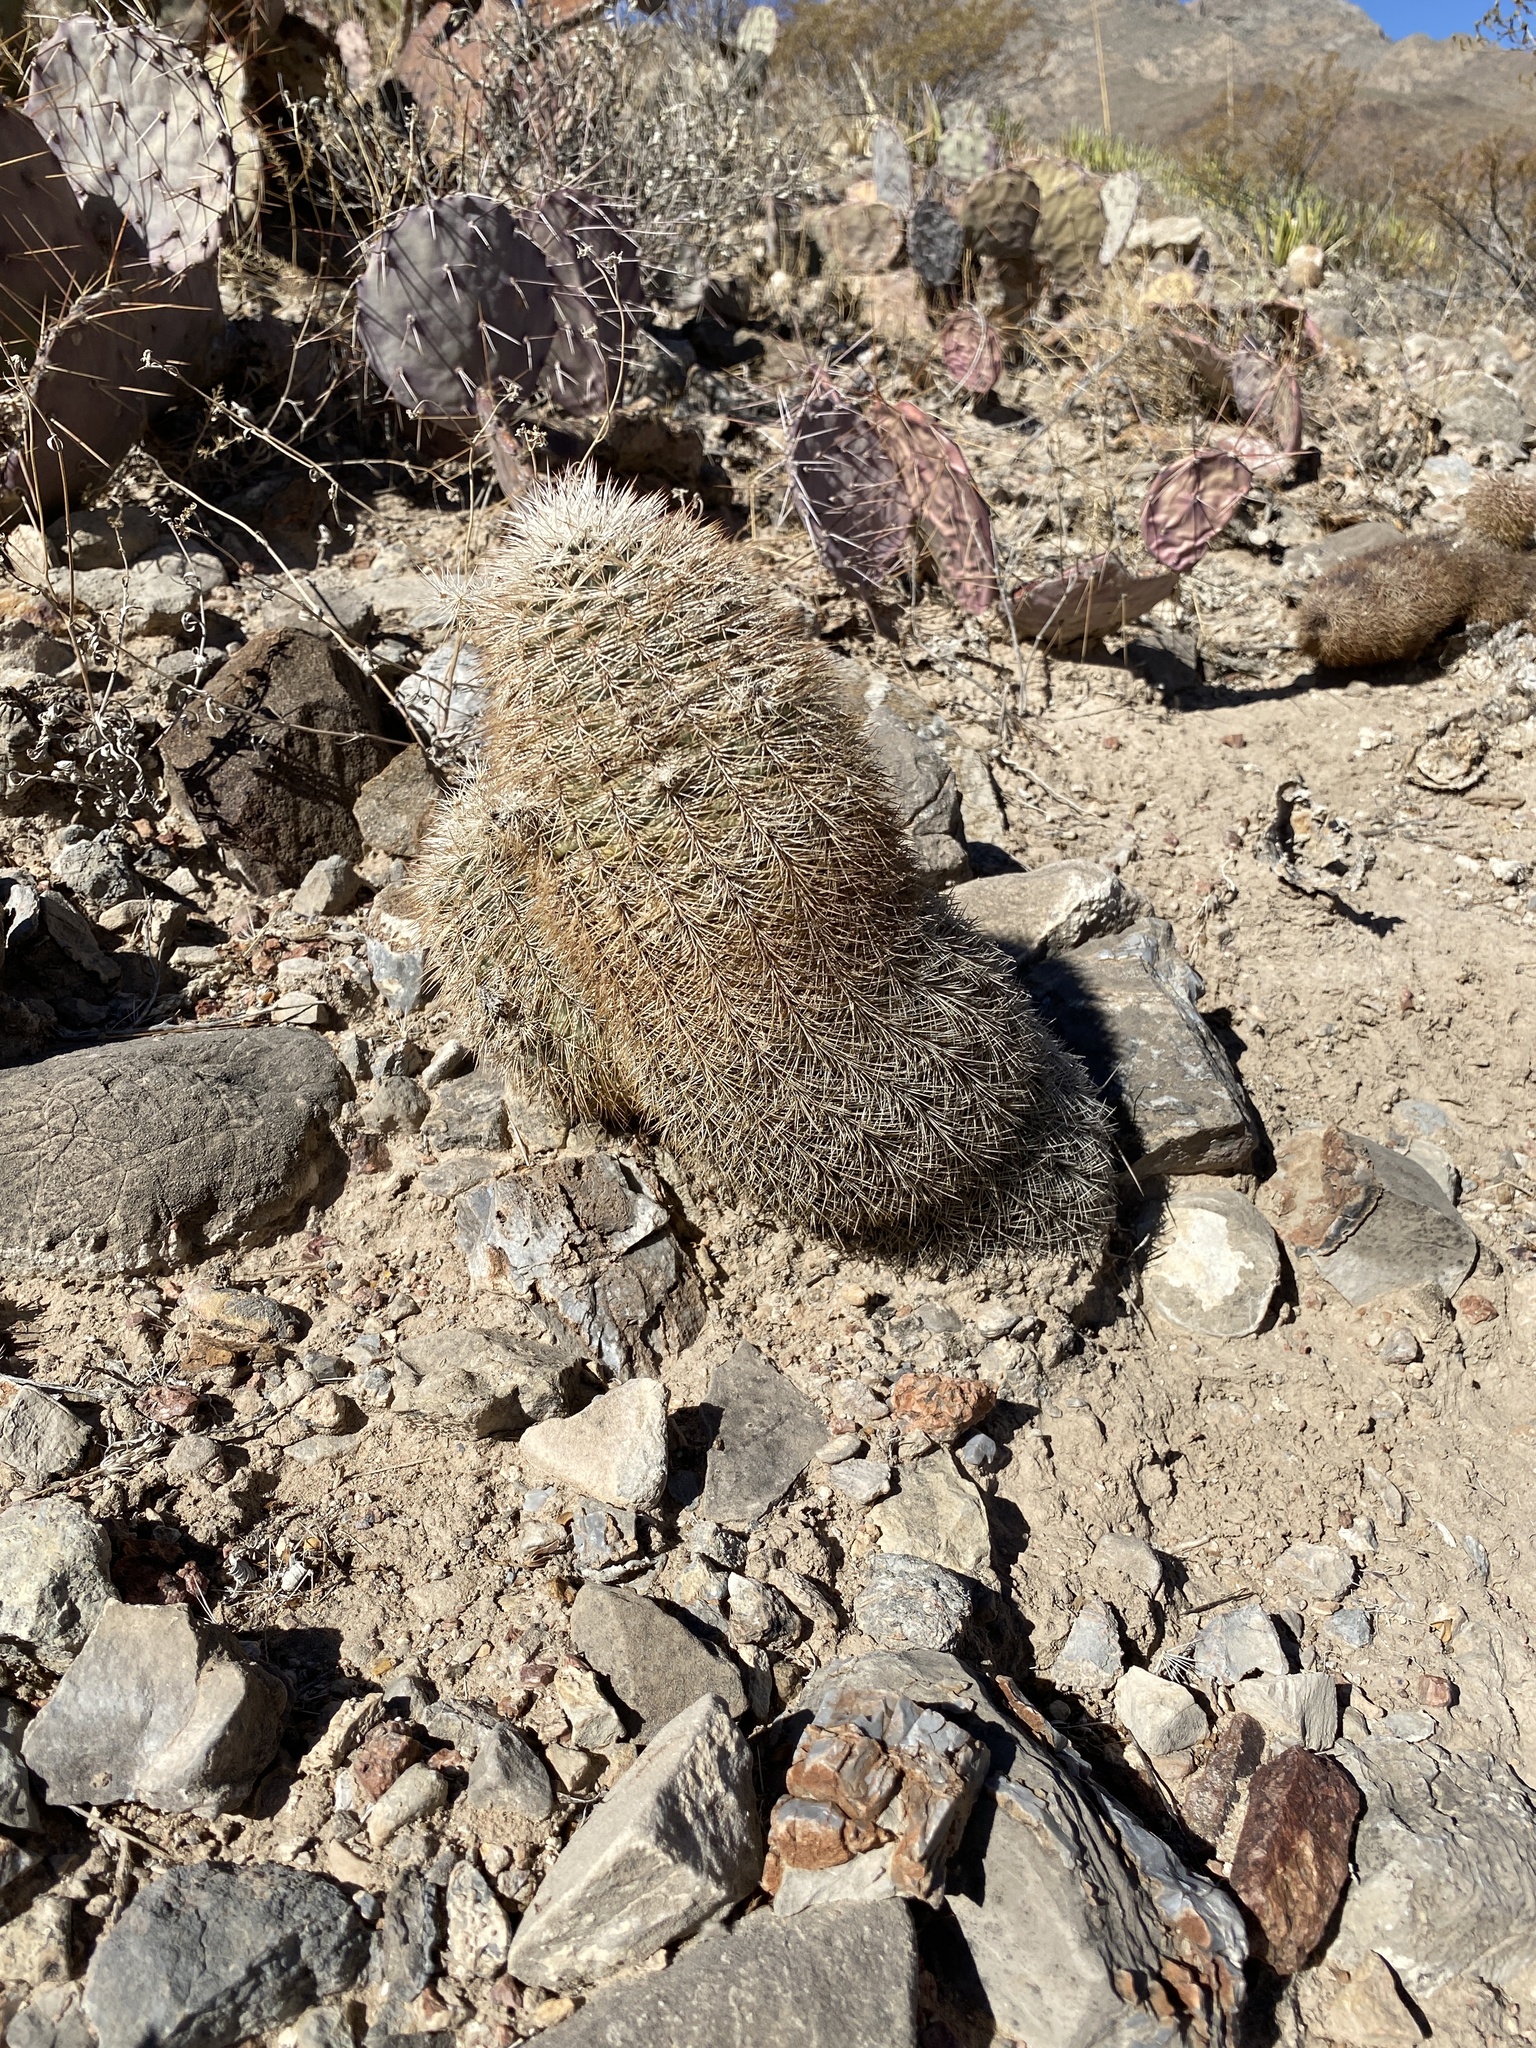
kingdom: Plantae
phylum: Tracheophyta
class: Magnoliopsida
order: Caryophyllales
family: Cactaceae
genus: Echinocereus
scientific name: Echinocereus dasyacanthus
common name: Spiny hedgehog cactus
